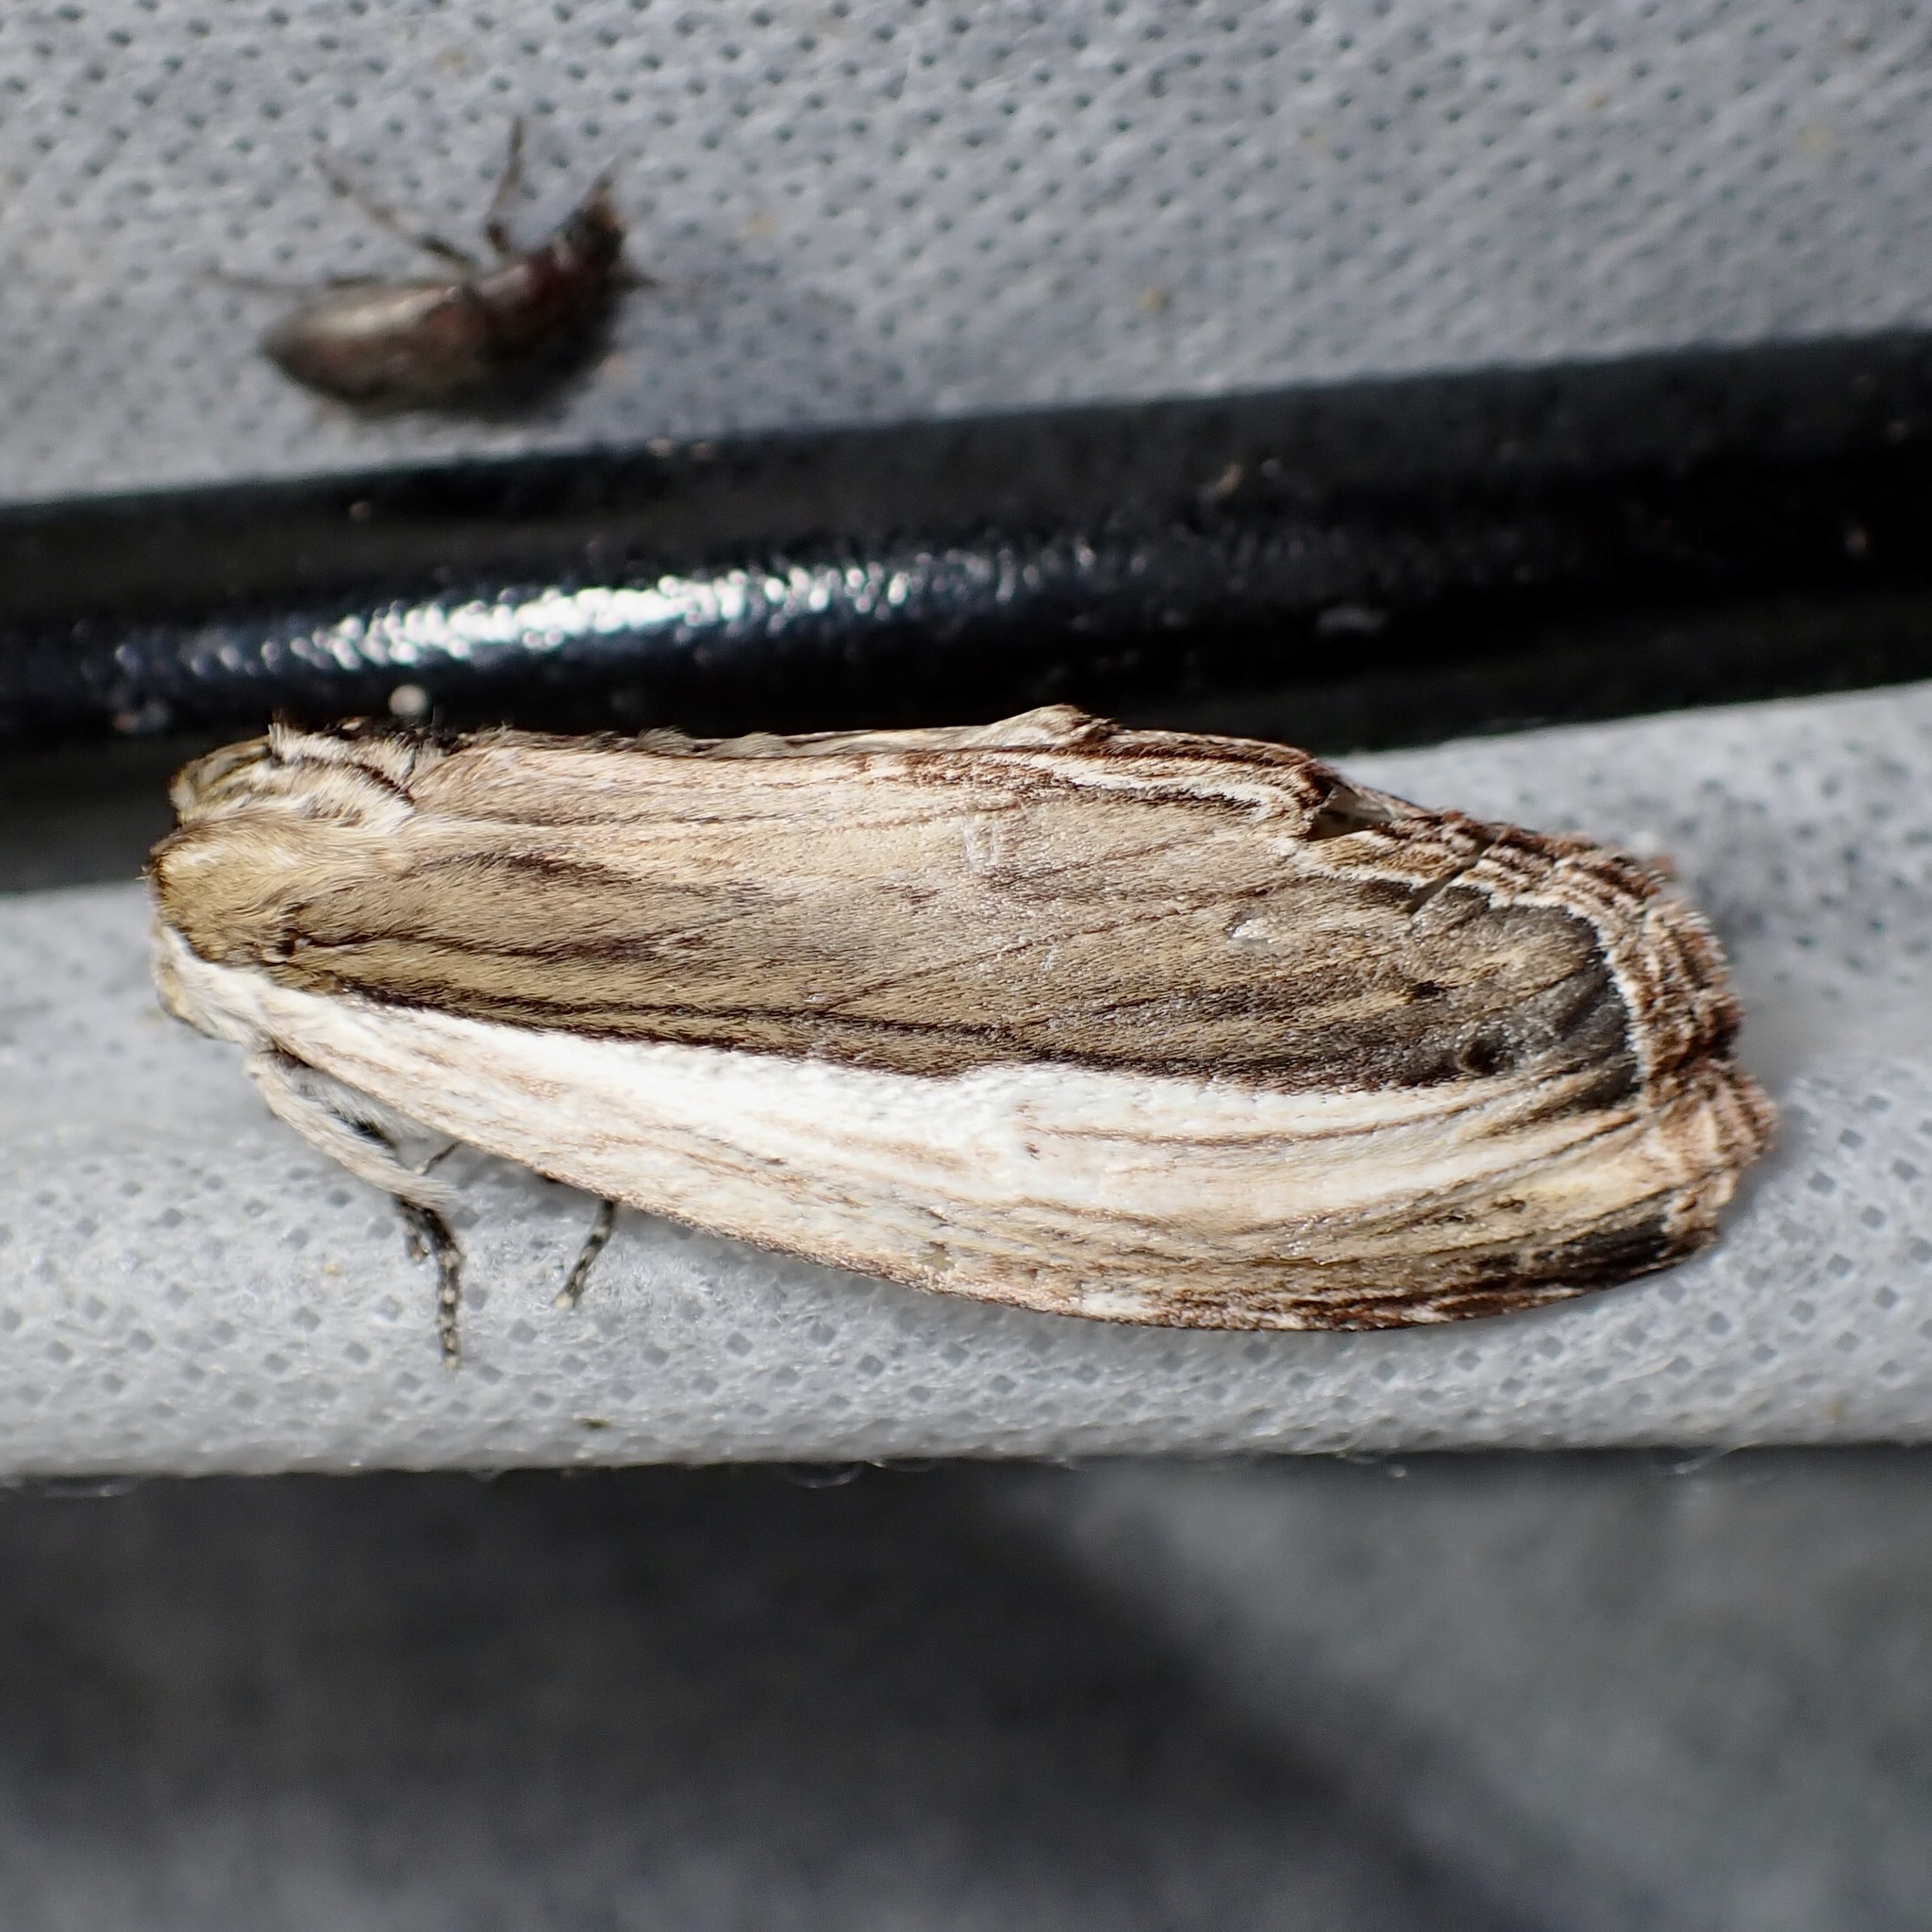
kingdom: Animalia
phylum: Arthropoda
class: Insecta
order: Lepidoptera
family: Notodontidae
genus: Truncaptera
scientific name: Truncaptera inopinata
